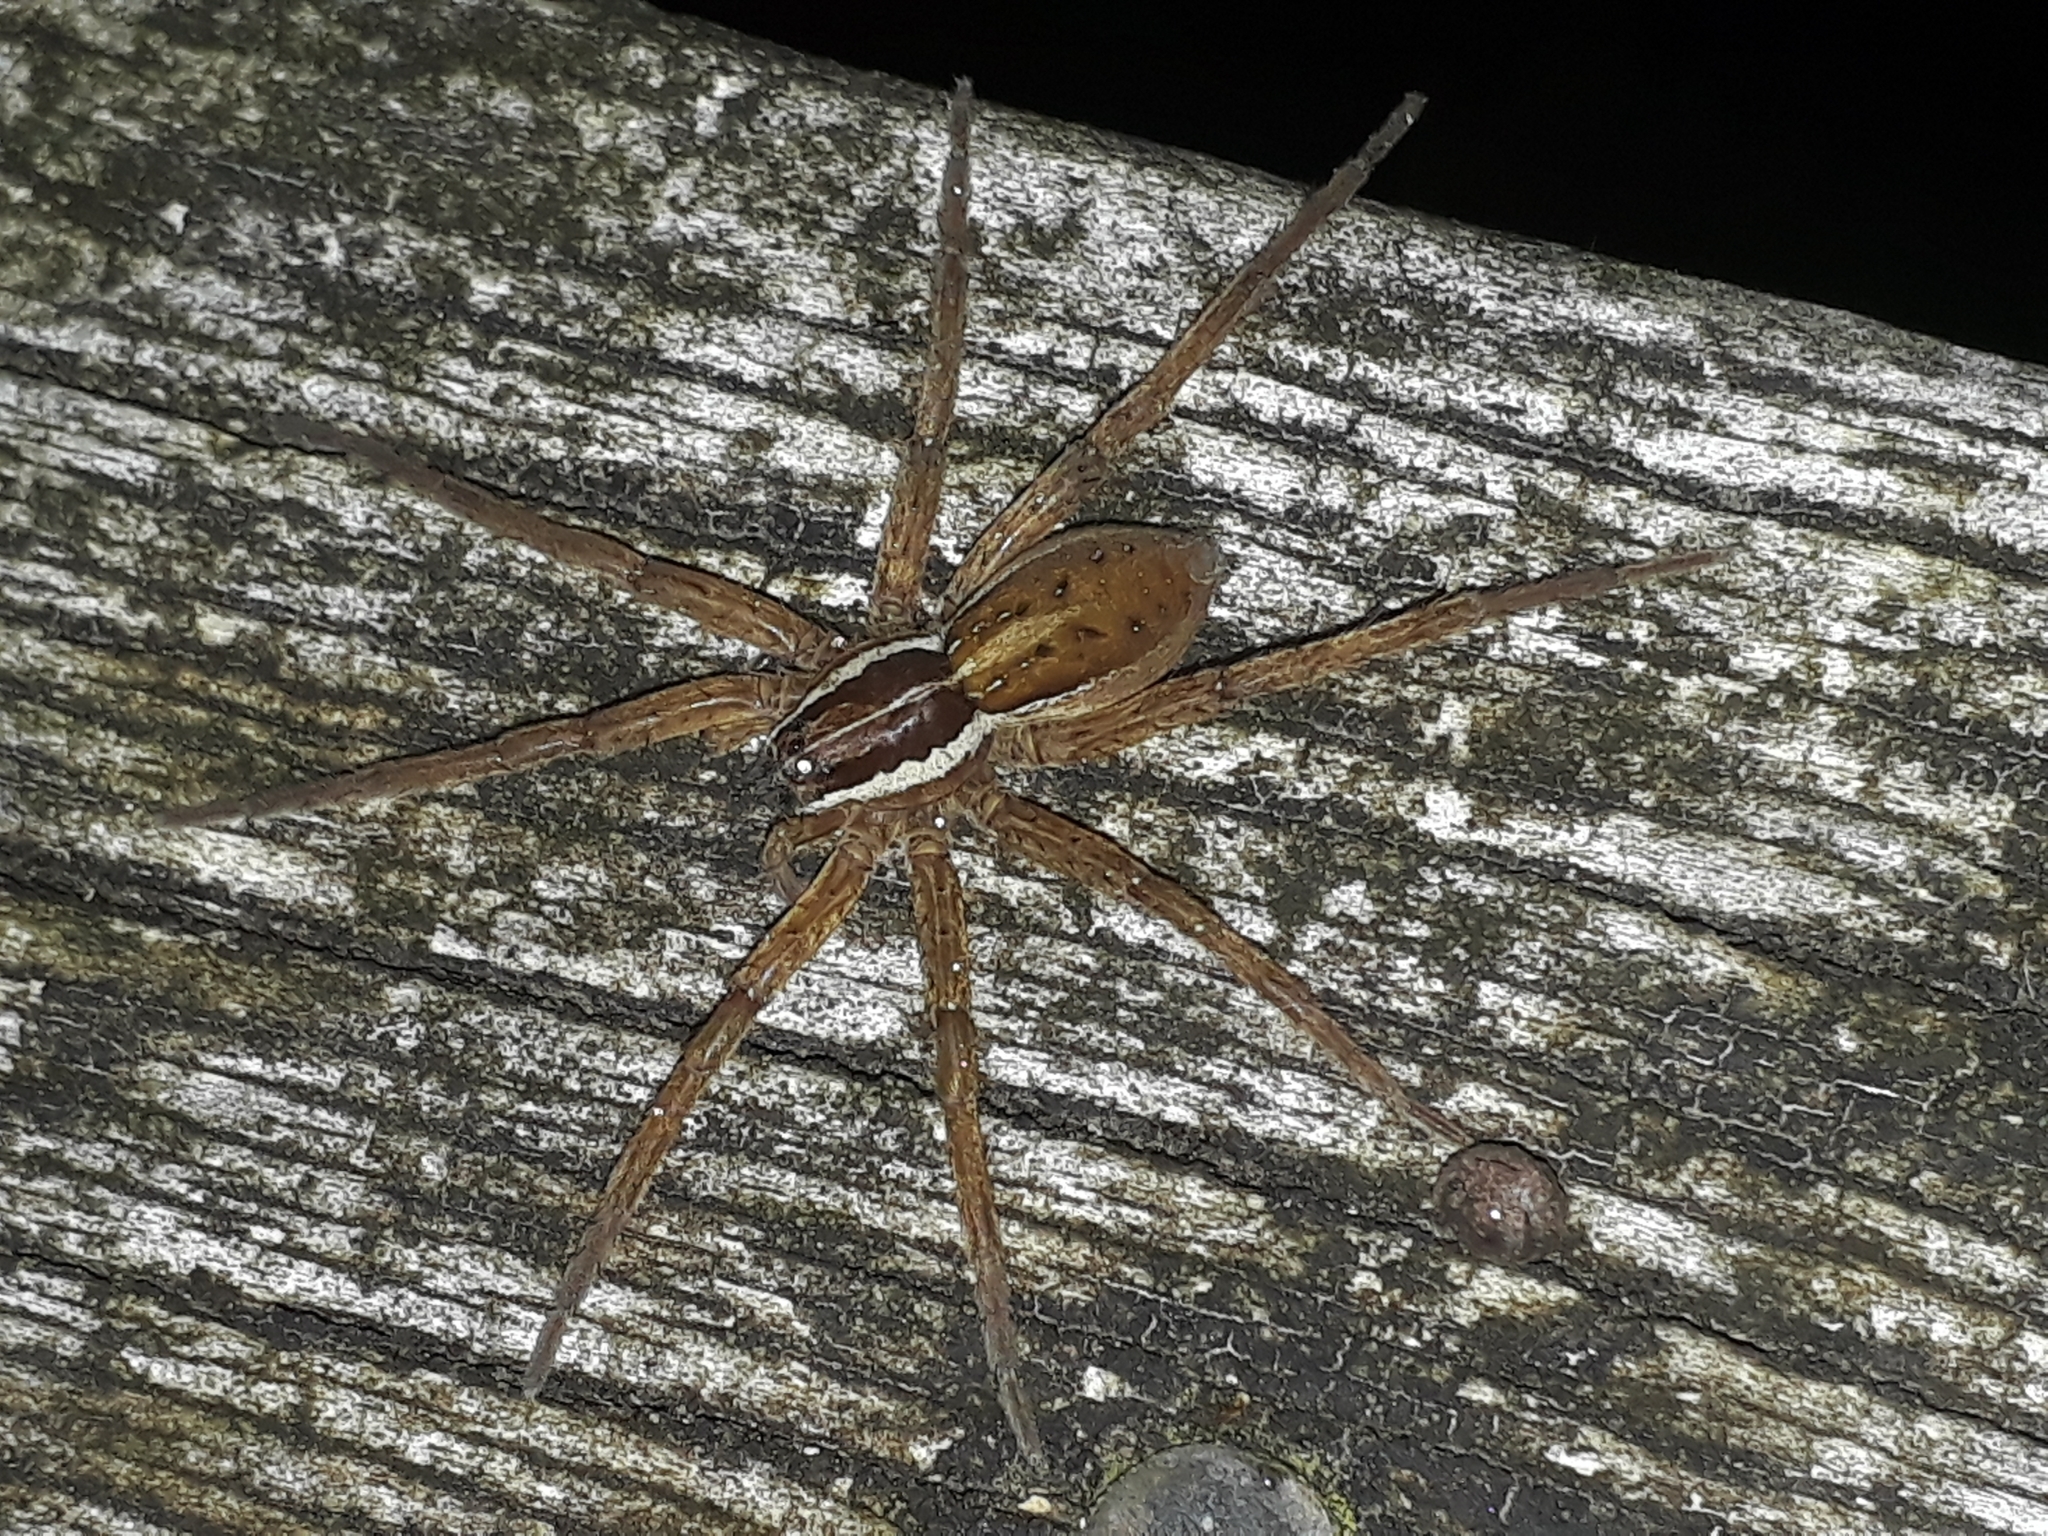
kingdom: Animalia
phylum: Arthropoda
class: Arachnida
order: Araneae
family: Pisauridae
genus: Dolomedes
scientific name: Dolomedes minor
